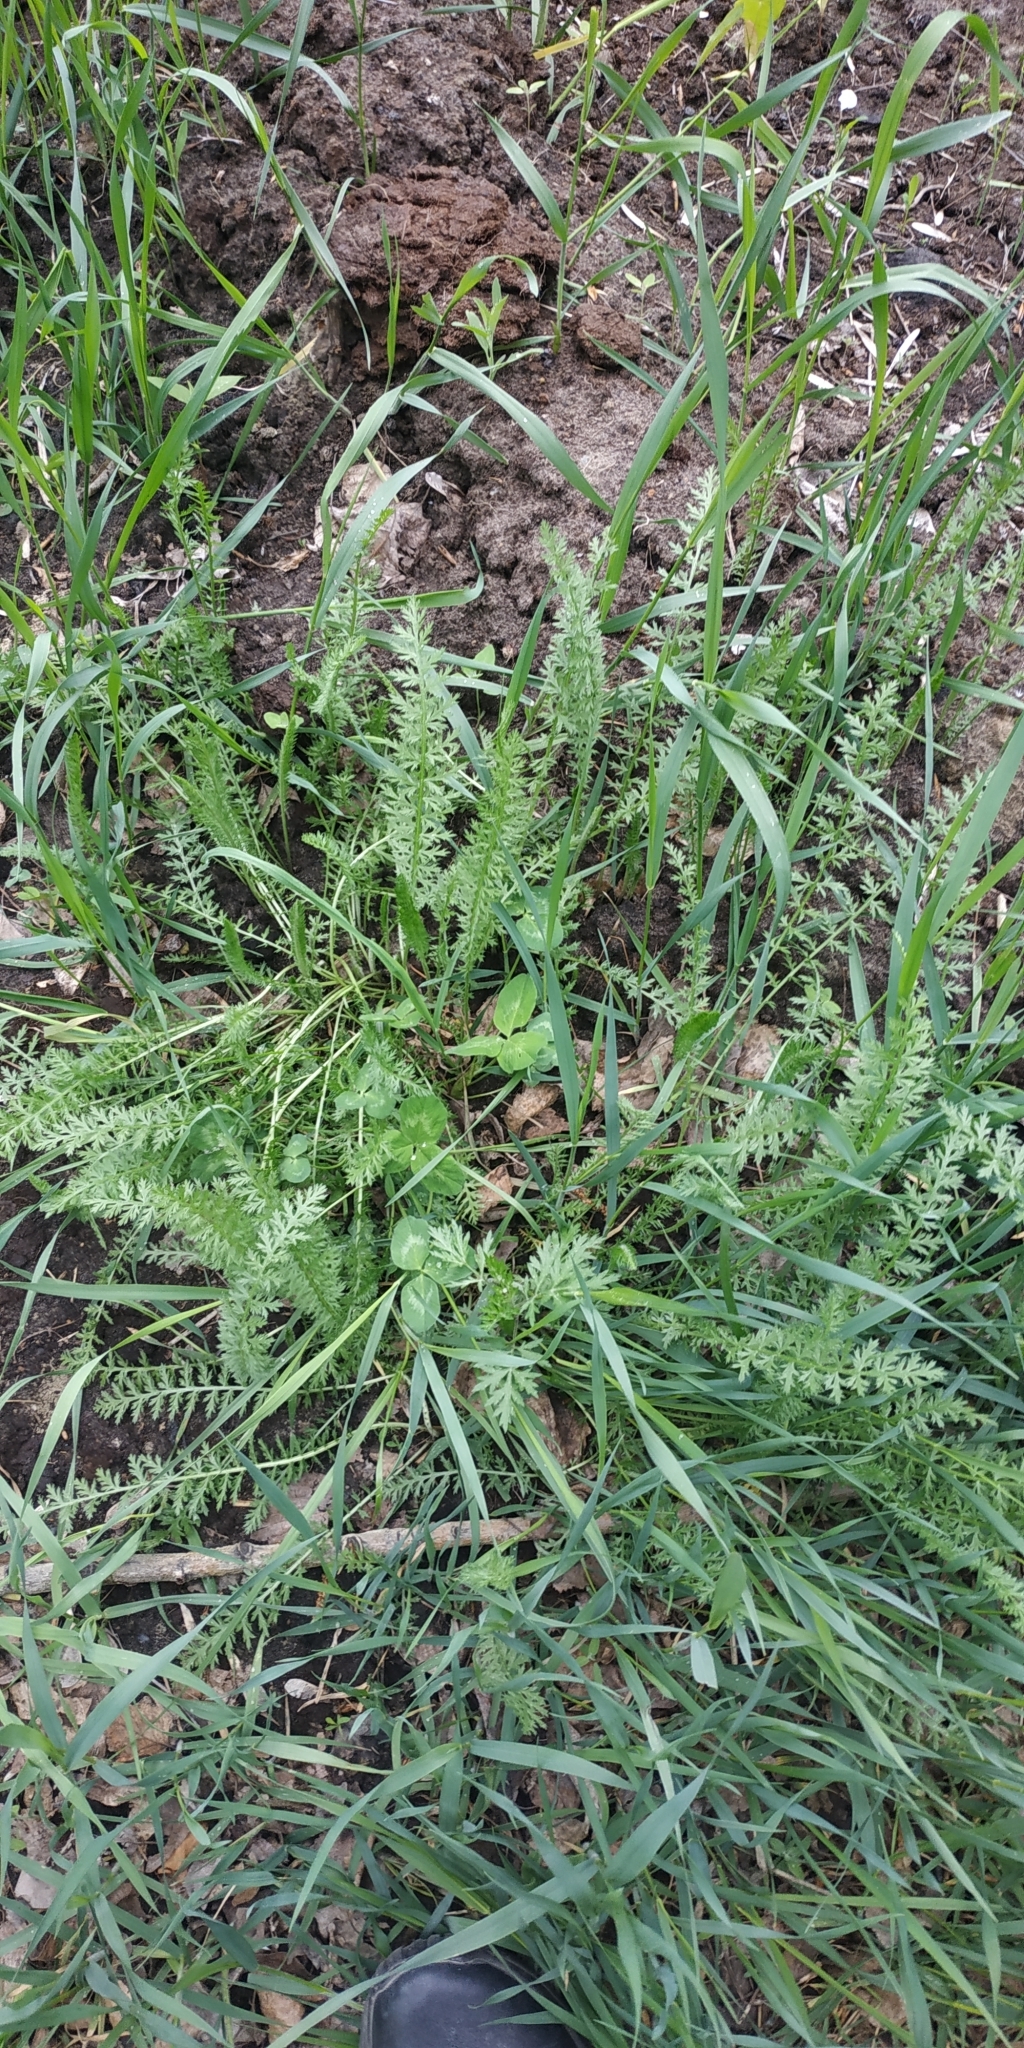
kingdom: Plantae
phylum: Tracheophyta
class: Magnoliopsida
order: Asterales
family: Asteraceae
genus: Achillea
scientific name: Achillea millefolium
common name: Yarrow
